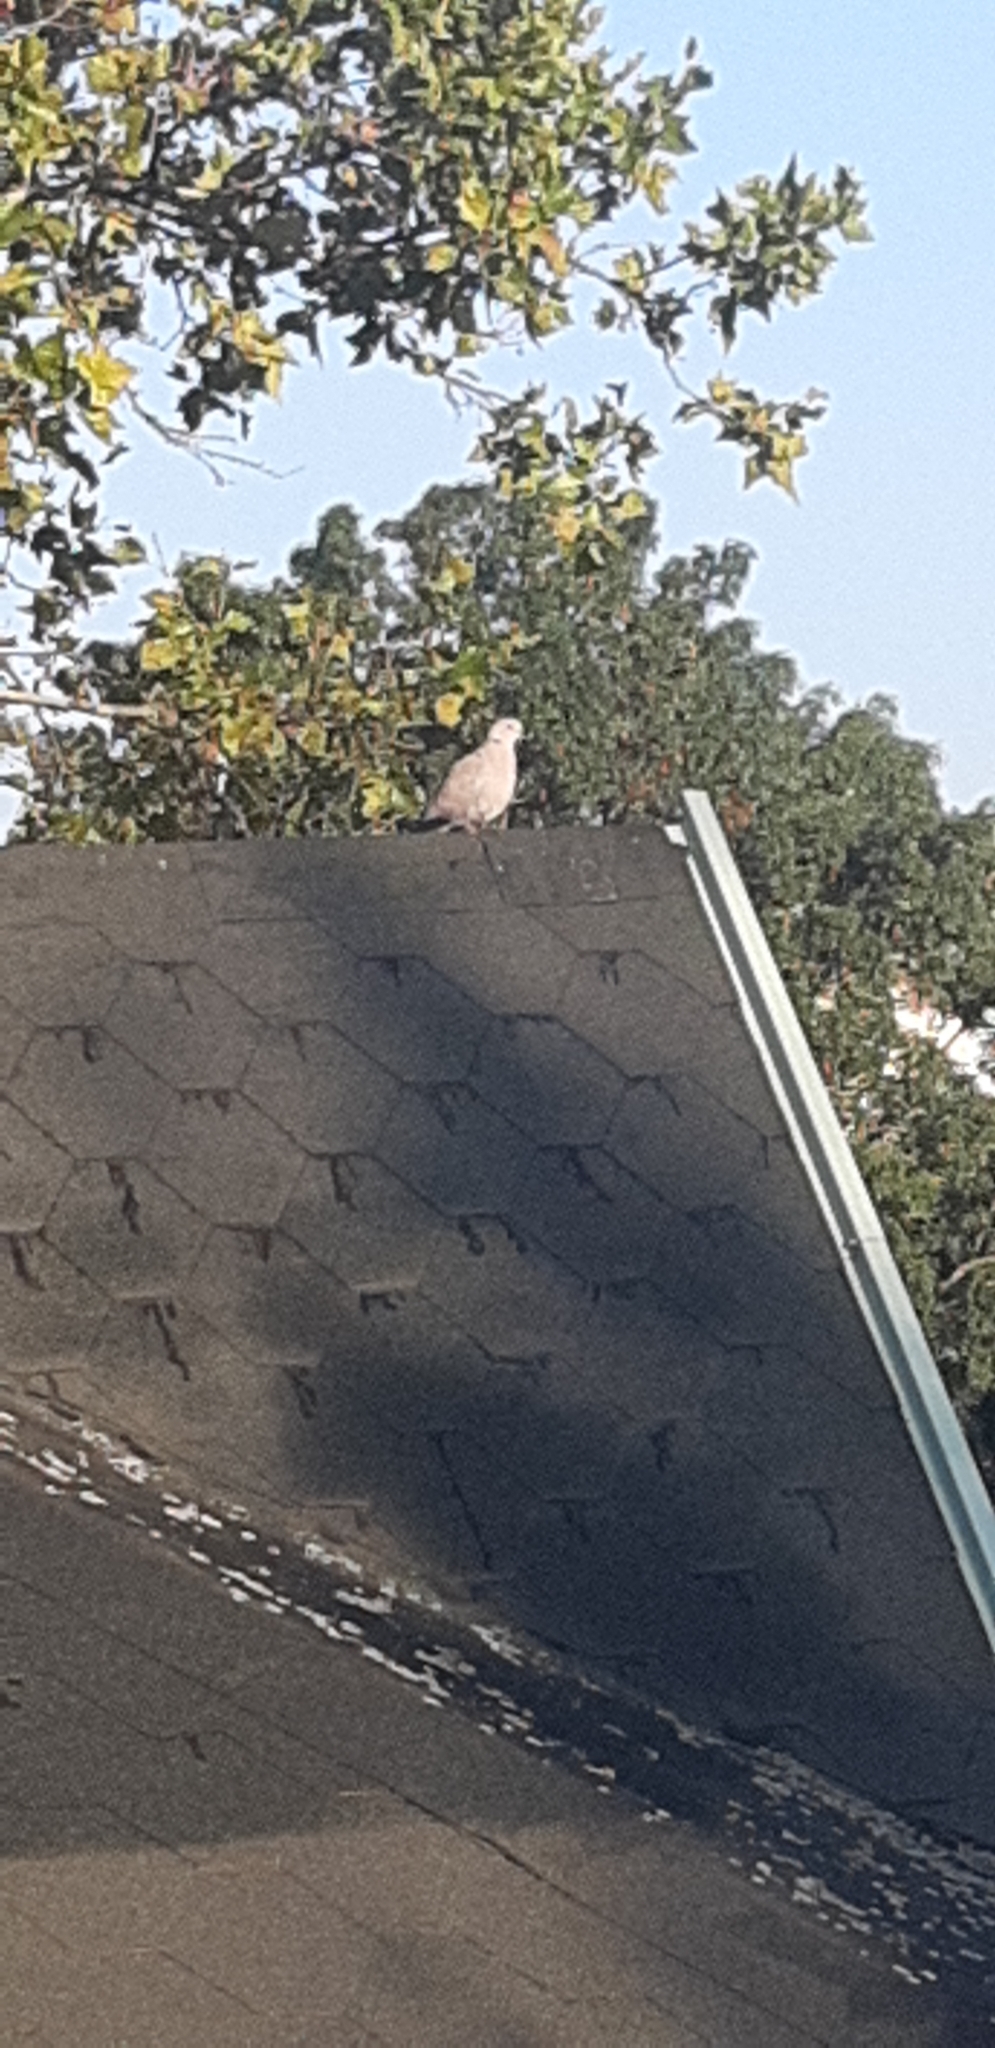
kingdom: Animalia
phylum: Chordata
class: Aves
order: Columbiformes
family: Columbidae
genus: Streptopelia
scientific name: Streptopelia decaocto
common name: Eurasian collared dove
